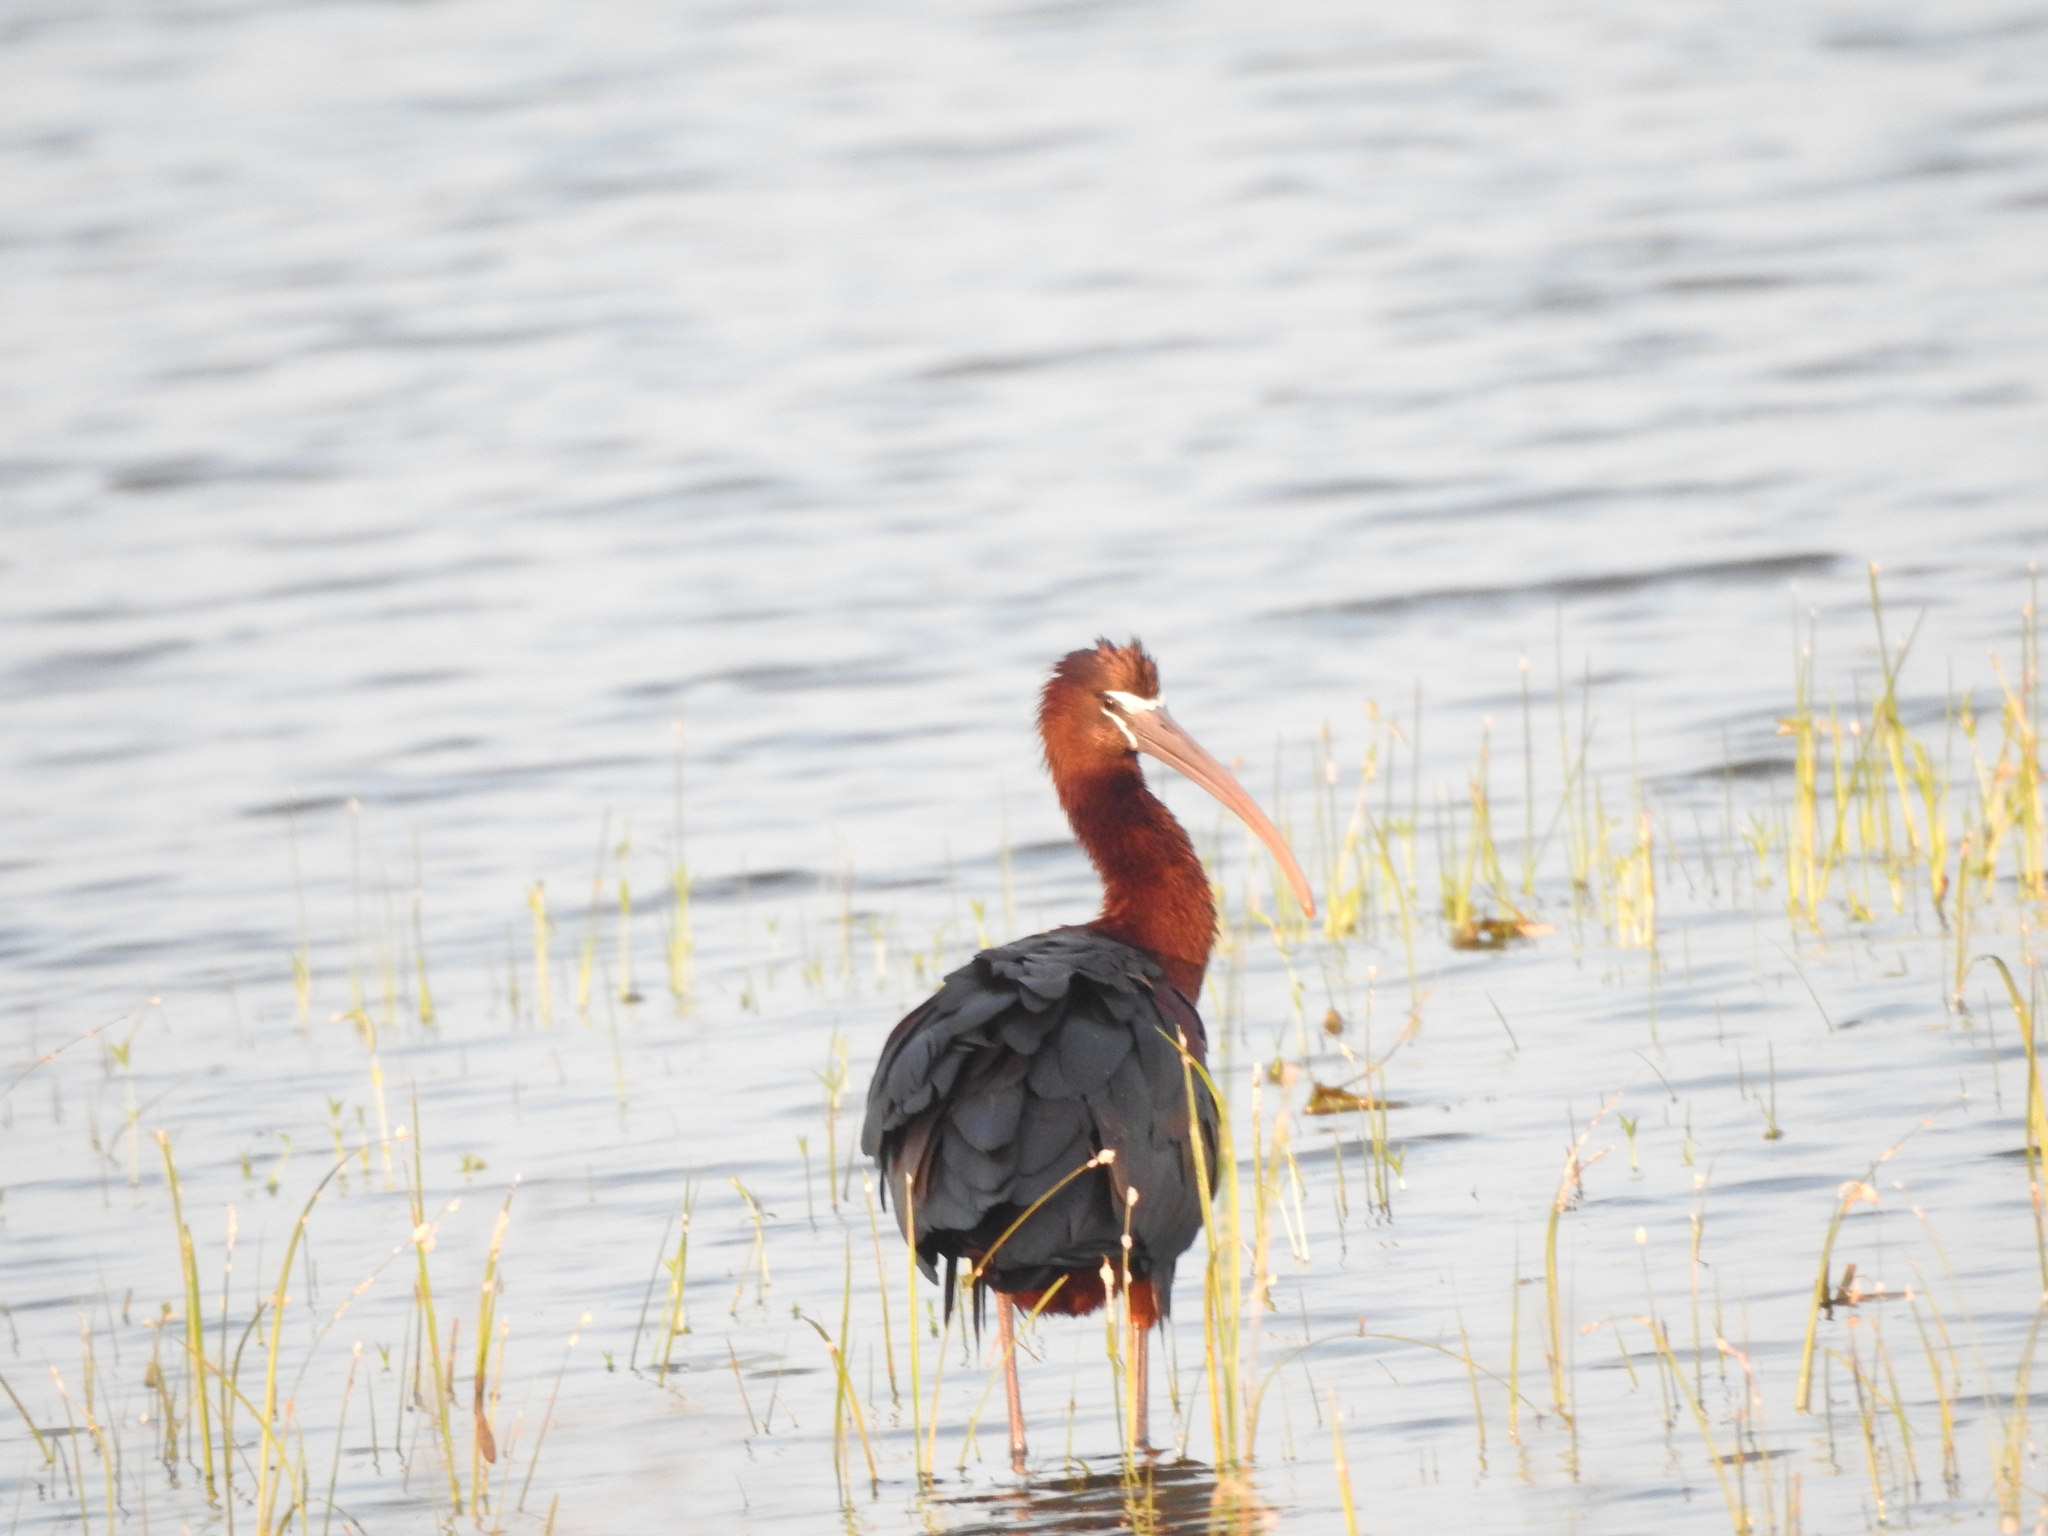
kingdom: Animalia
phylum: Chordata
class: Aves
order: Pelecaniformes
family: Threskiornithidae
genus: Plegadis
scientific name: Plegadis falcinellus
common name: Glossy ibis
